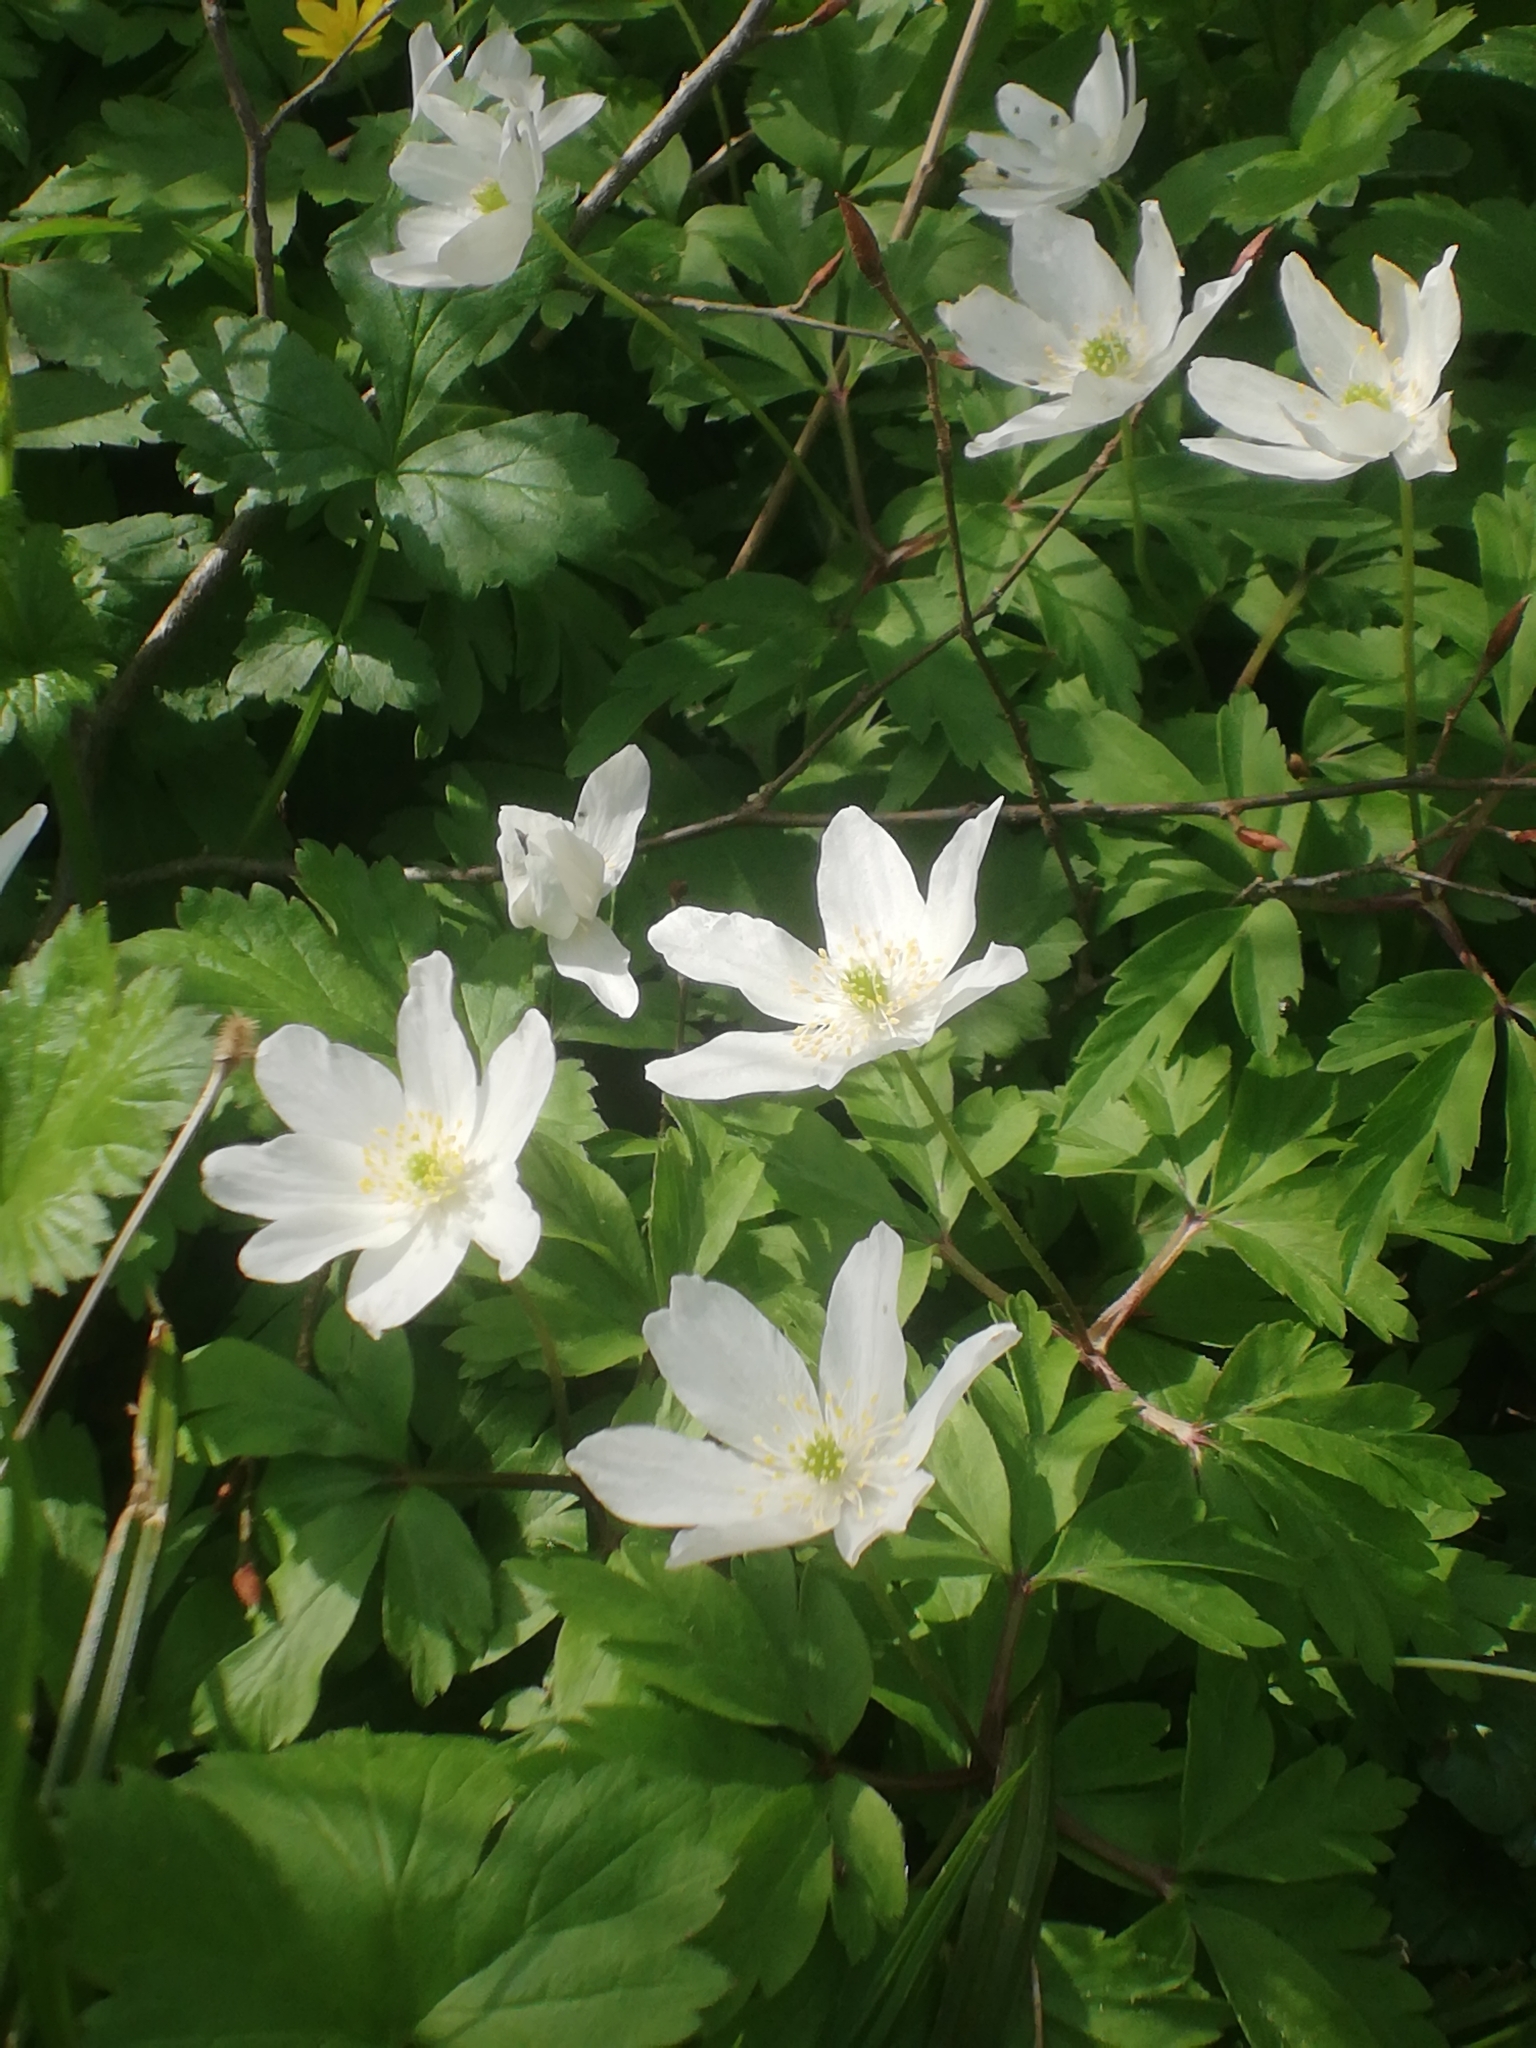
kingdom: Plantae
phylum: Tracheophyta
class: Magnoliopsida
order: Ranunculales
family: Ranunculaceae
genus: Anemone
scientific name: Anemone nemorosa
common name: Wood anemone
